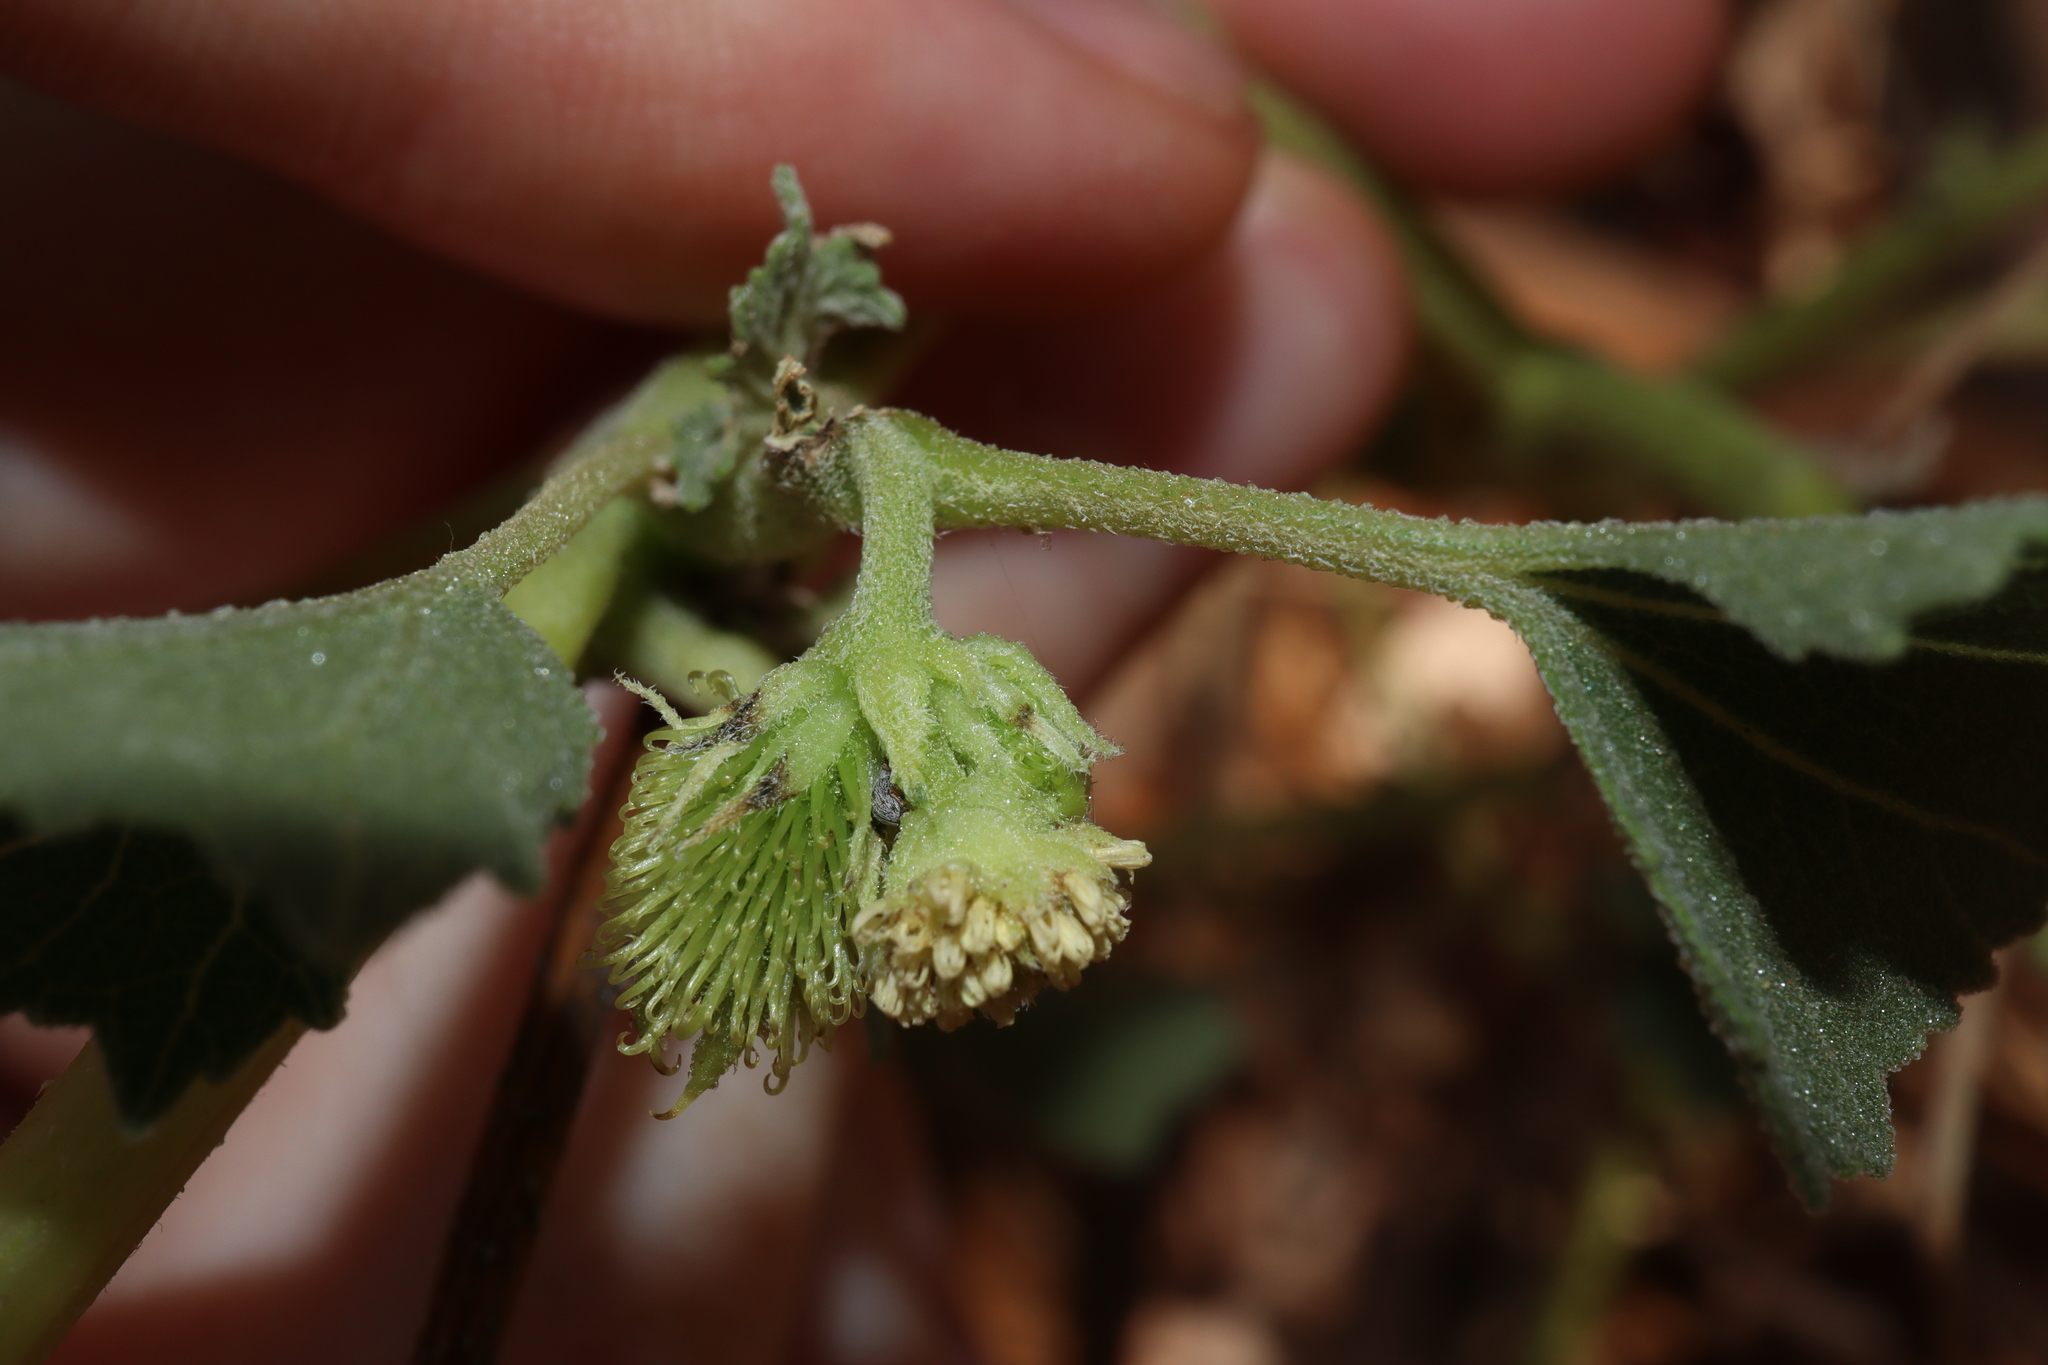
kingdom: Plantae
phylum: Tracheophyta
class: Magnoliopsida
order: Asterales
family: Asteraceae
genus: Xanthium
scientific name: Xanthium strumarium
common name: Rough cocklebur
